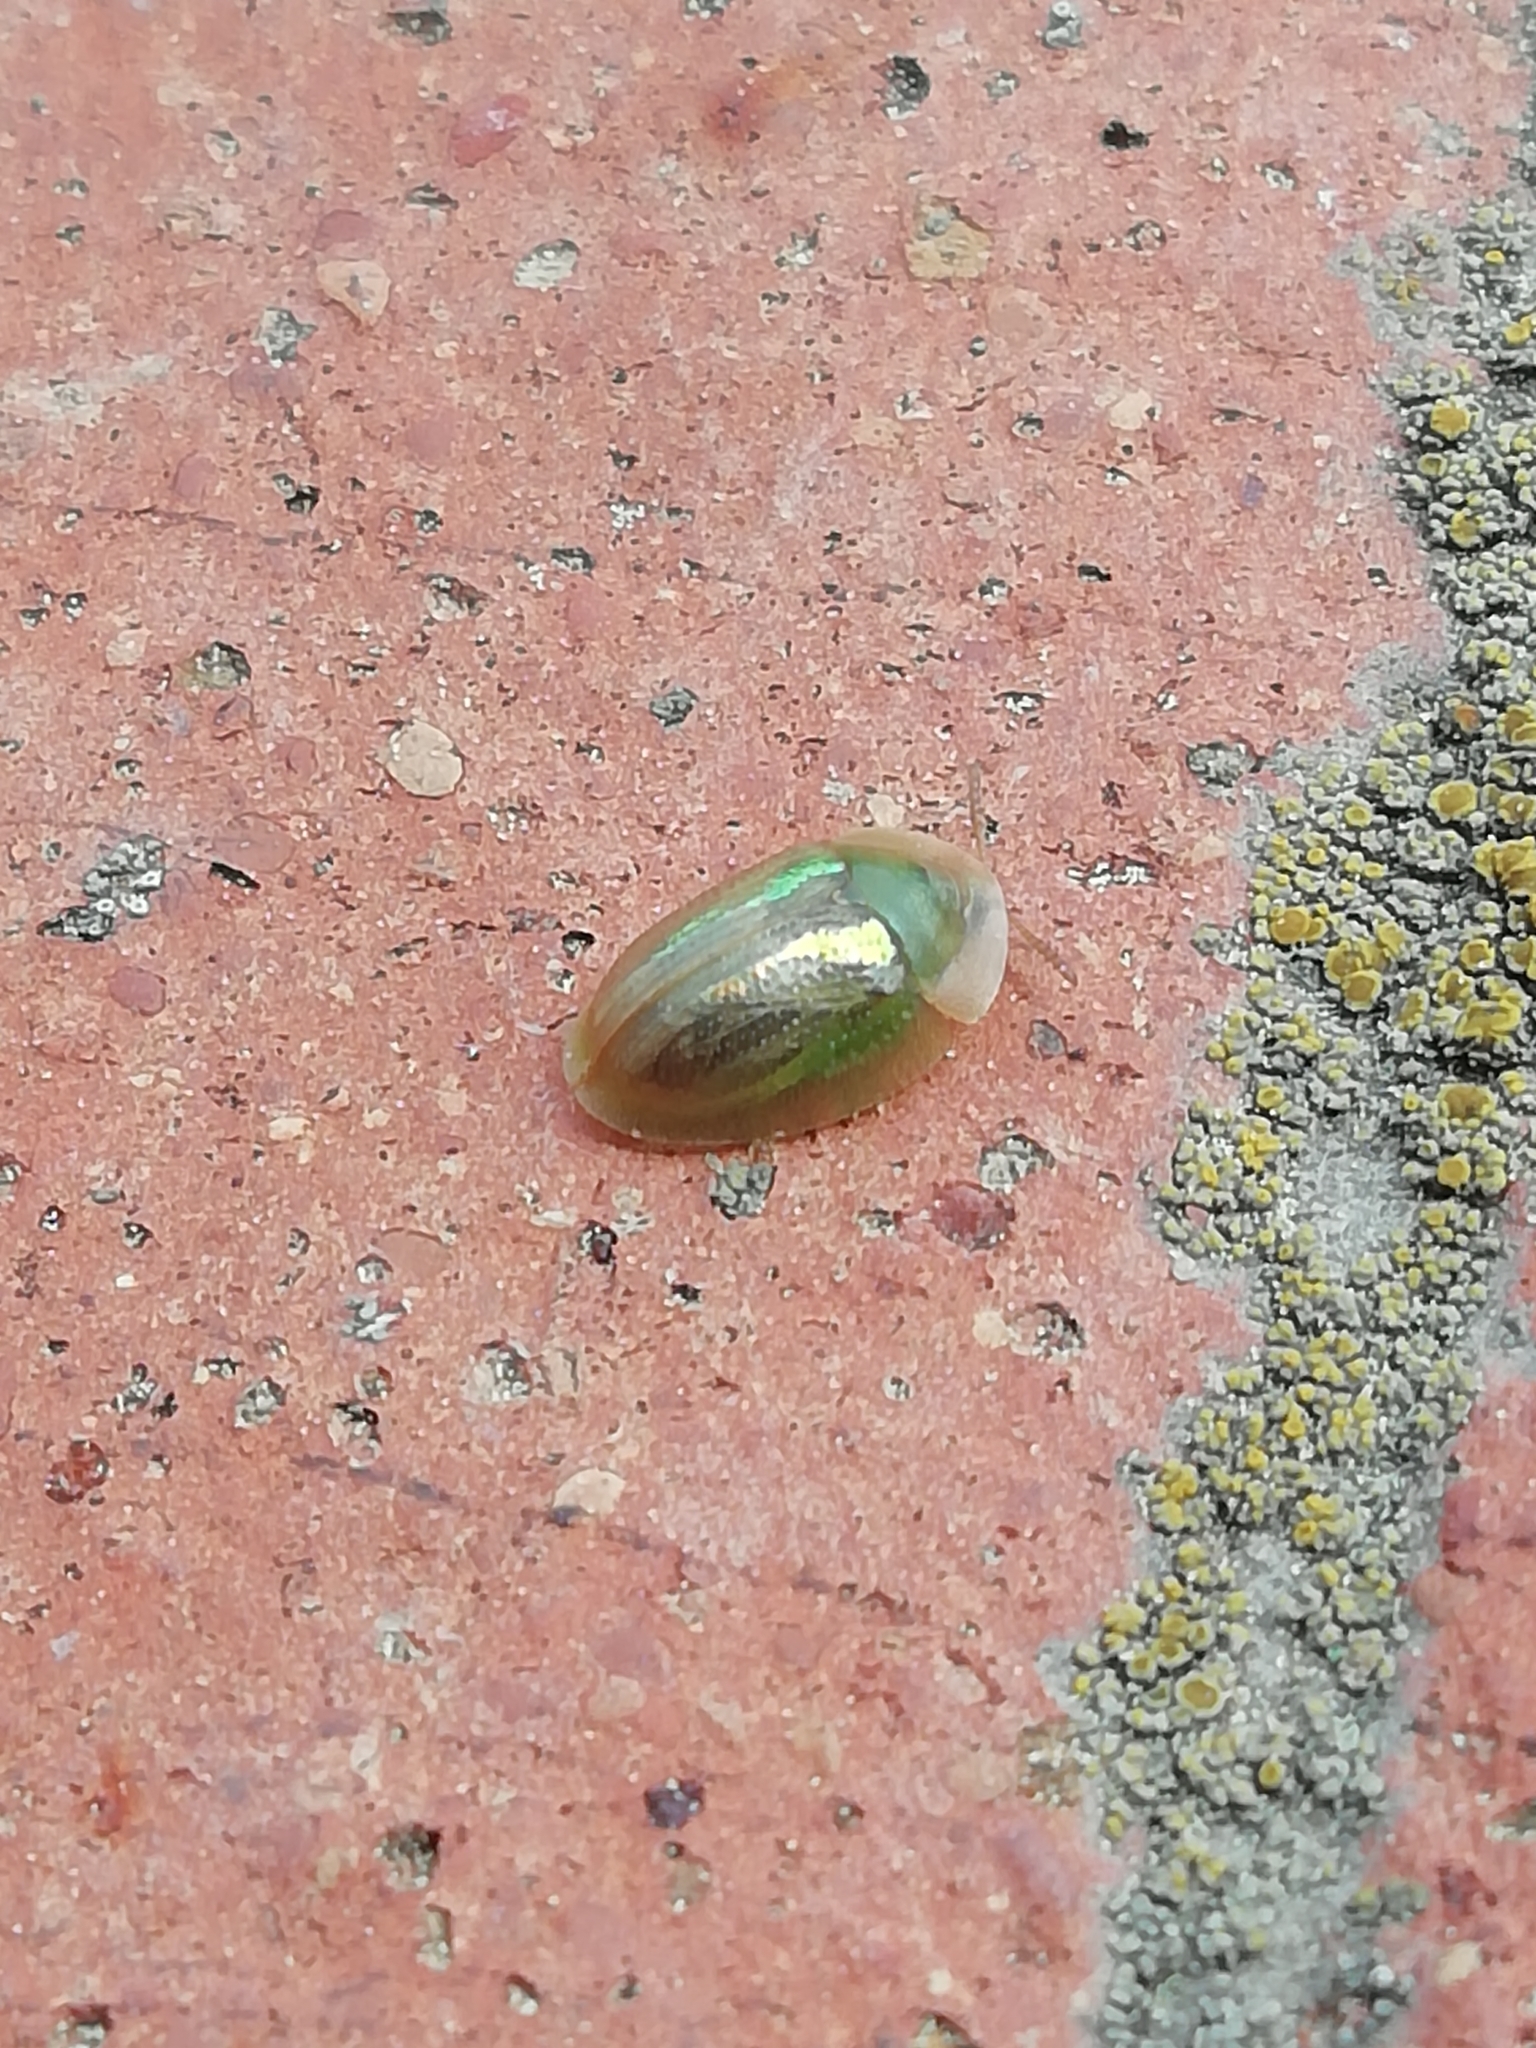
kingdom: Animalia
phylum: Arthropoda
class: Insecta
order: Coleoptera
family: Chrysomelidae
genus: Cassida
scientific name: Cassida vittata
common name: Bordered tortoise beetle
